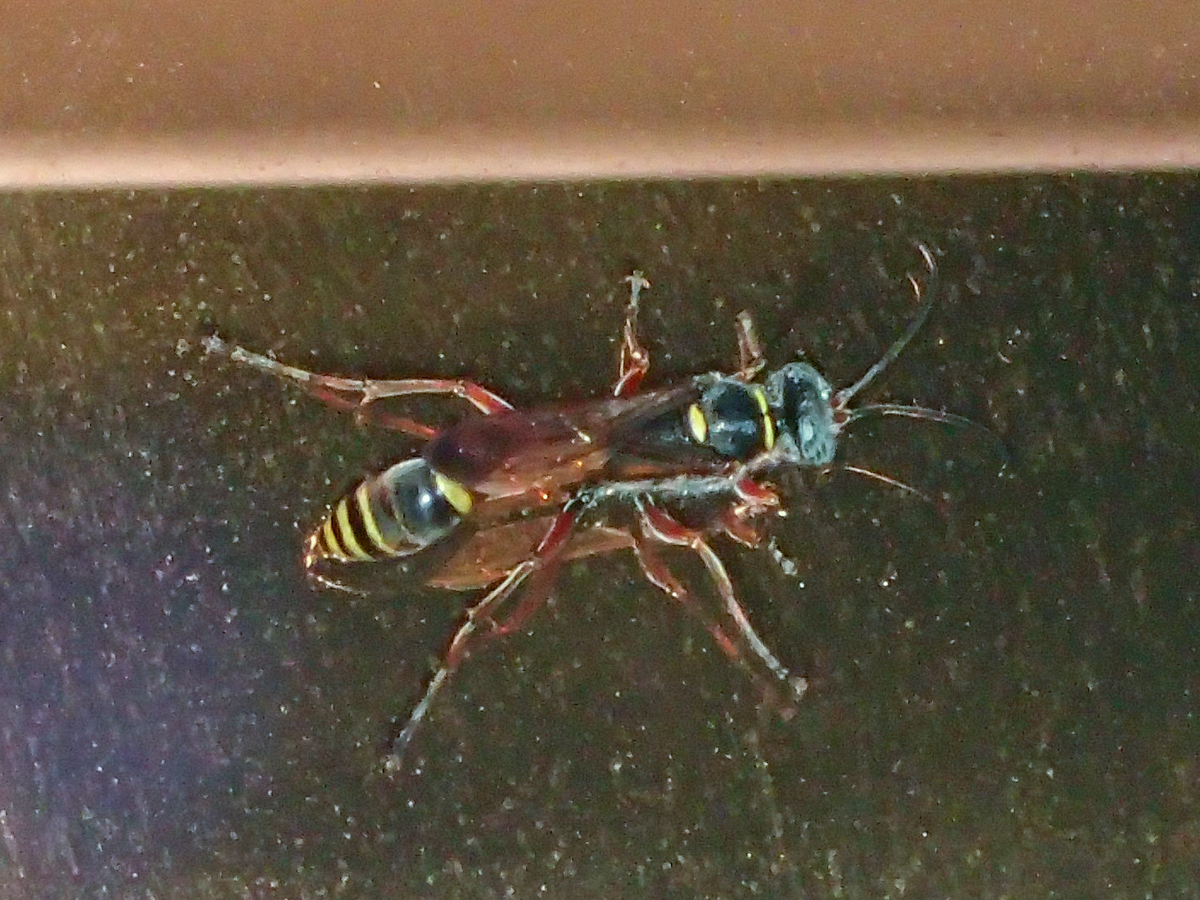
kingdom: Animalia
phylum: Arthropoda
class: Insecta
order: Hymenoptera
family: Sphecidae
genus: Sceliphron
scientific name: Sceliphron deforme
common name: Pelopèe
